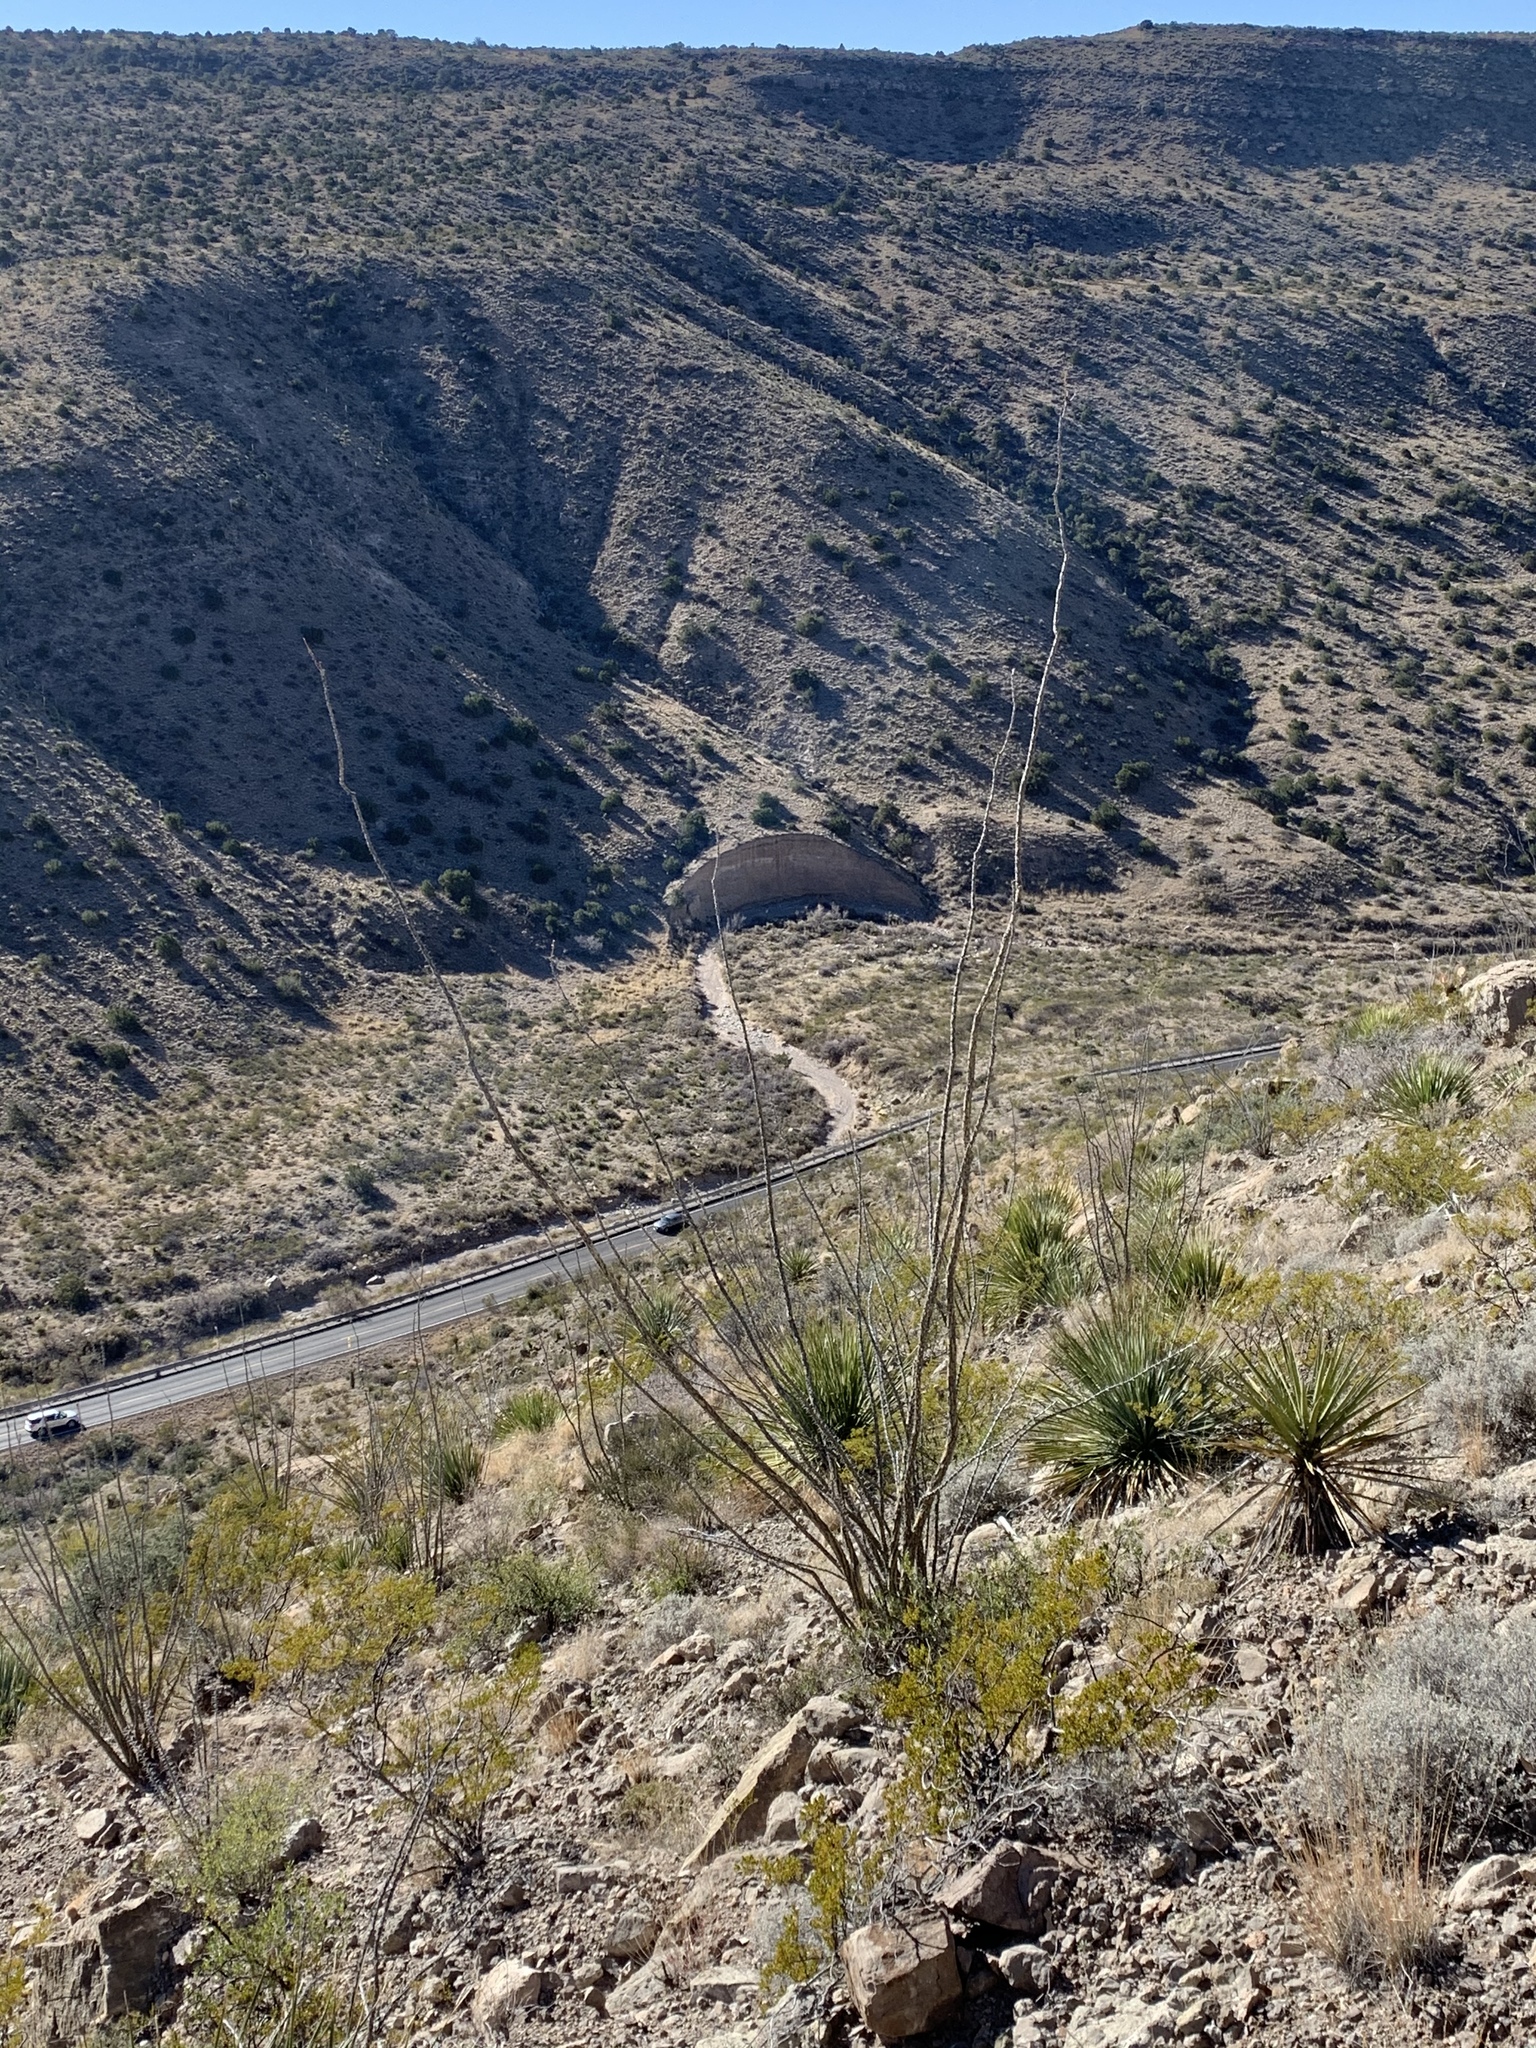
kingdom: Plantae
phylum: Tracheophyta
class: Magnoliopsida
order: Ericales
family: Fouquieriaceae
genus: Fouquieria
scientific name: Fouquieria splendens
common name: Vine-cactus
